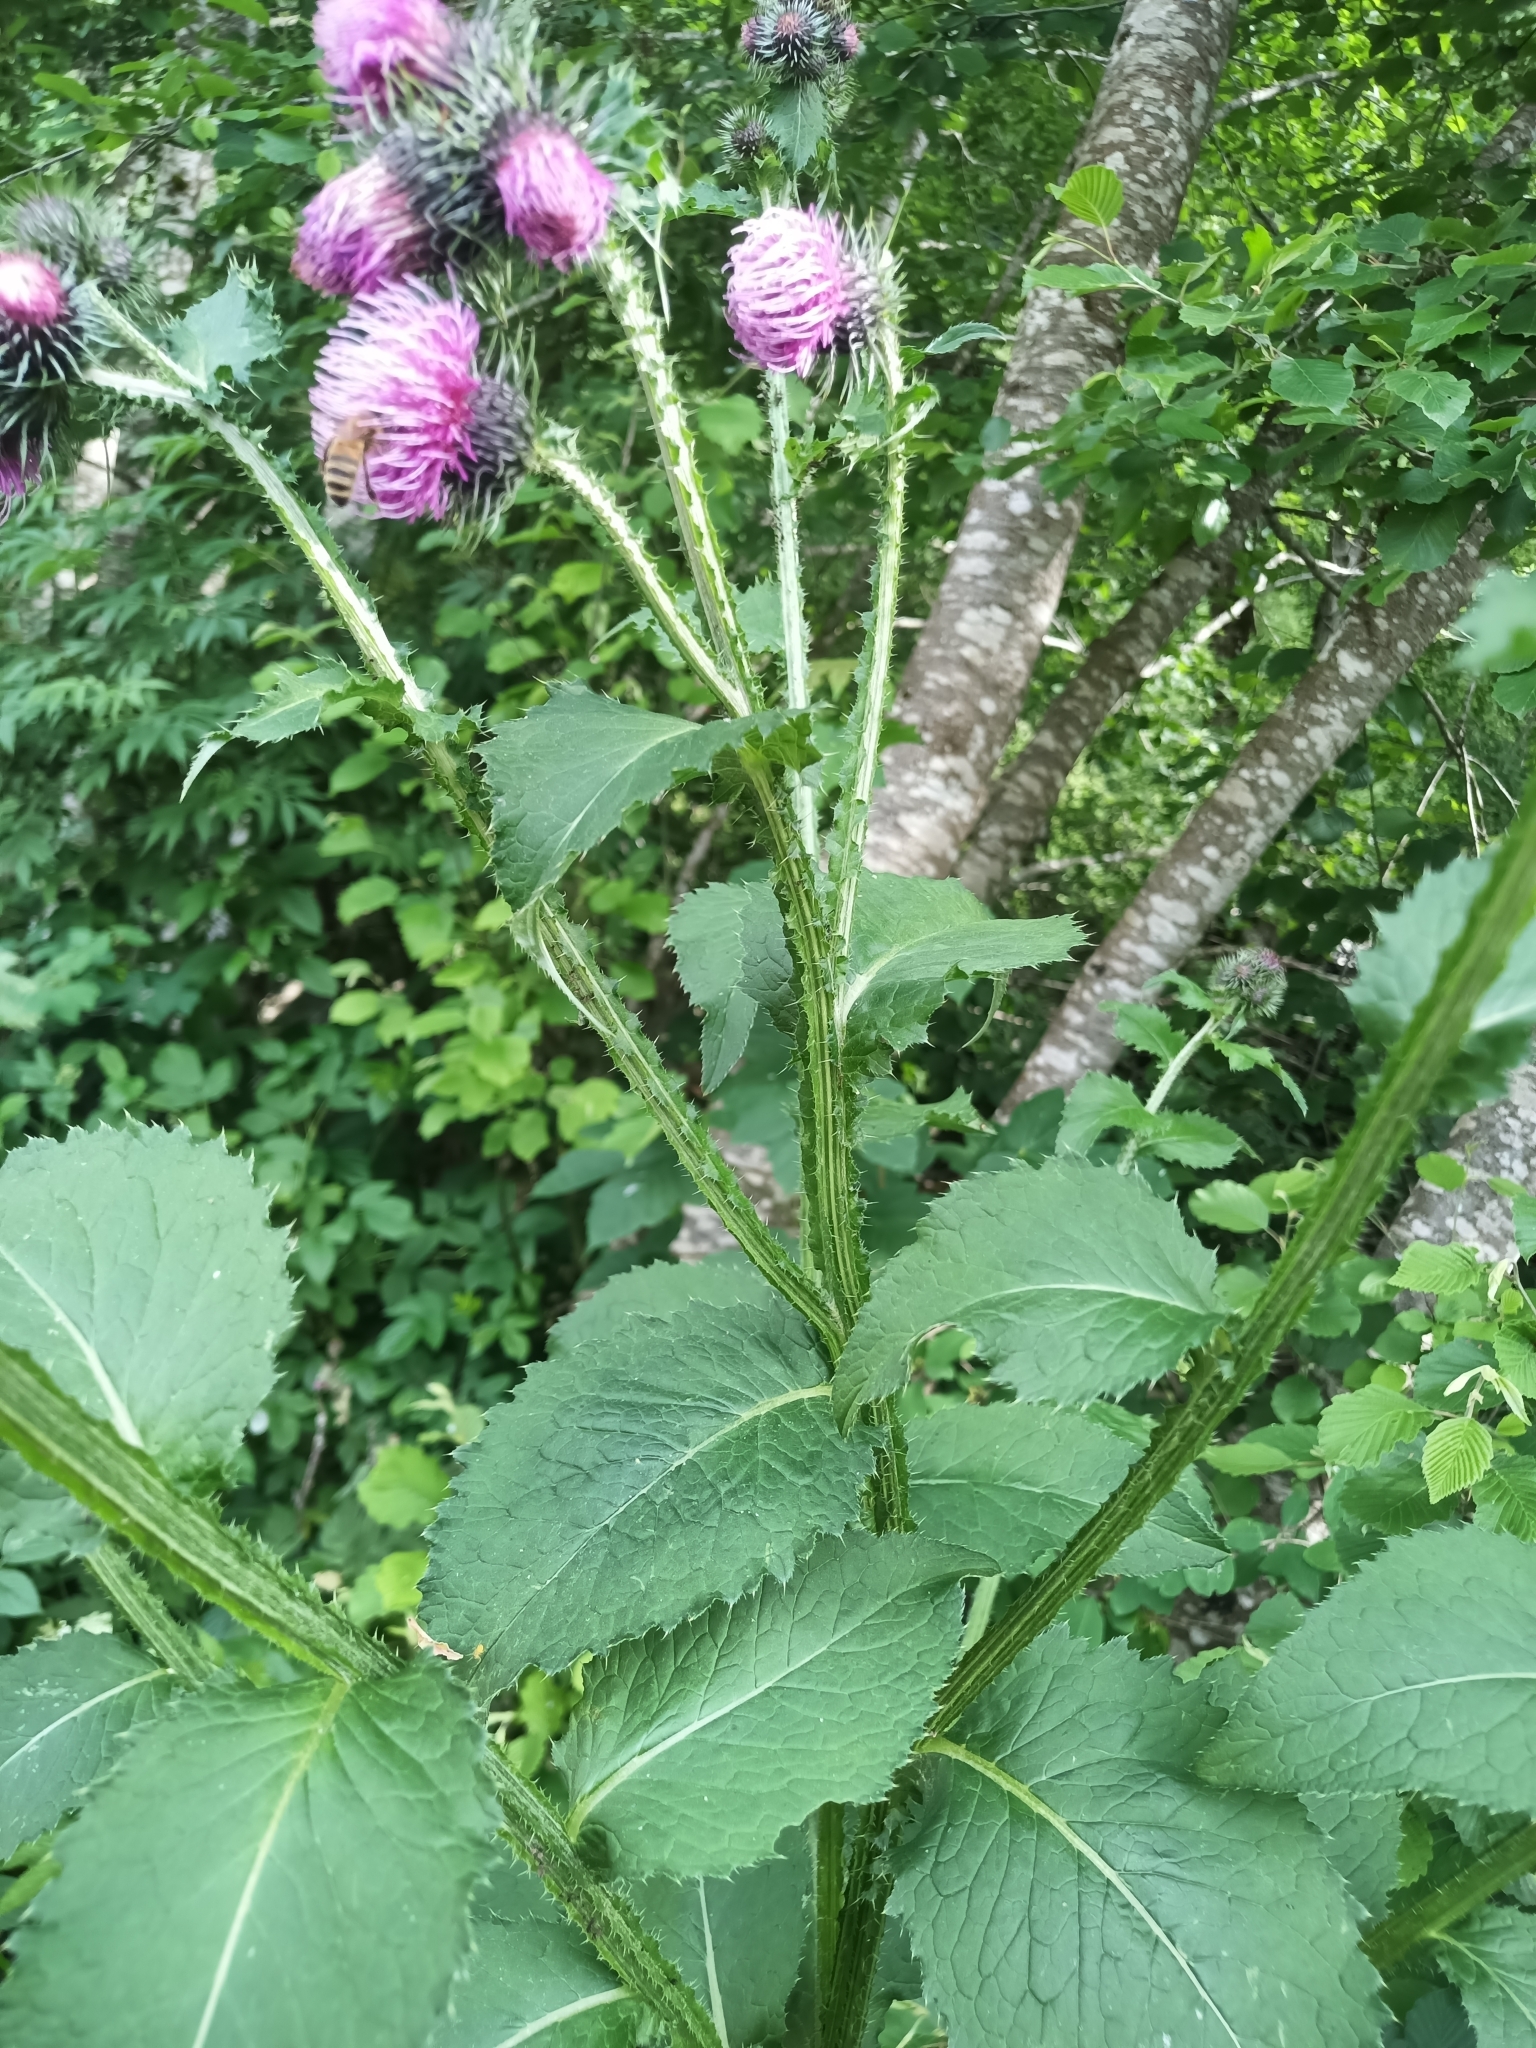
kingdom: Plantae
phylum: Tracheophyta
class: Magnoliopsida
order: Asterales
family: Asteraceae
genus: Carduus
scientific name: Carduus personata
